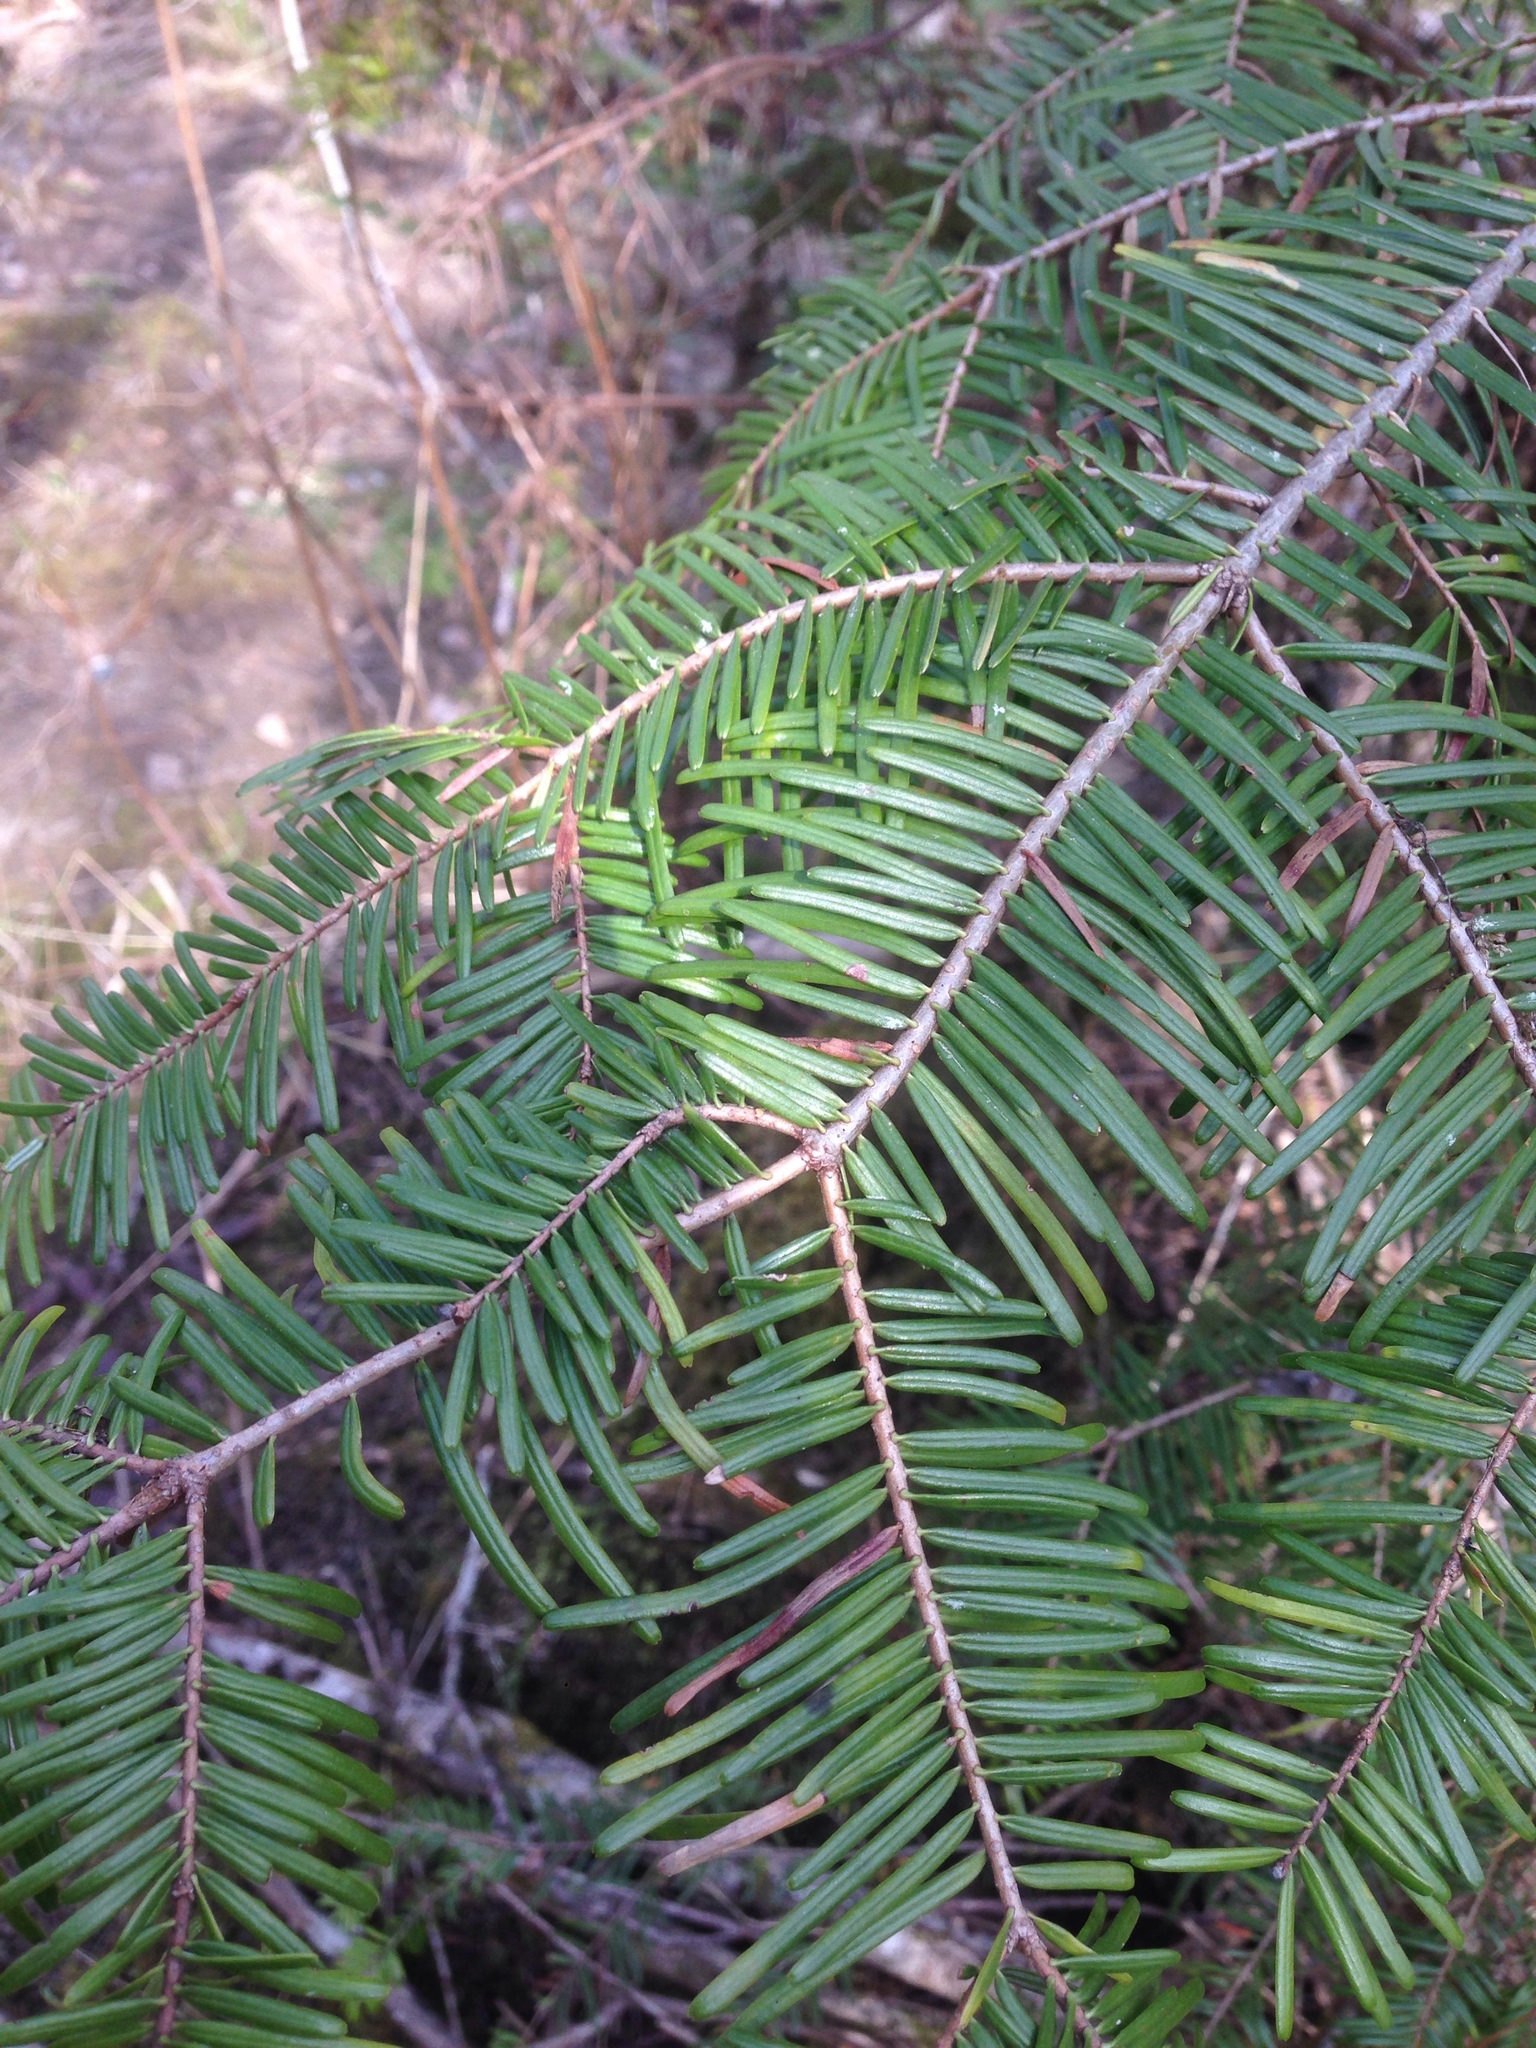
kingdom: Plantae
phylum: Tracheophyta
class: Pinopsida
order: Pinales
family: Pinaceae
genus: Abies
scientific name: Abies grandis
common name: Giant fir
